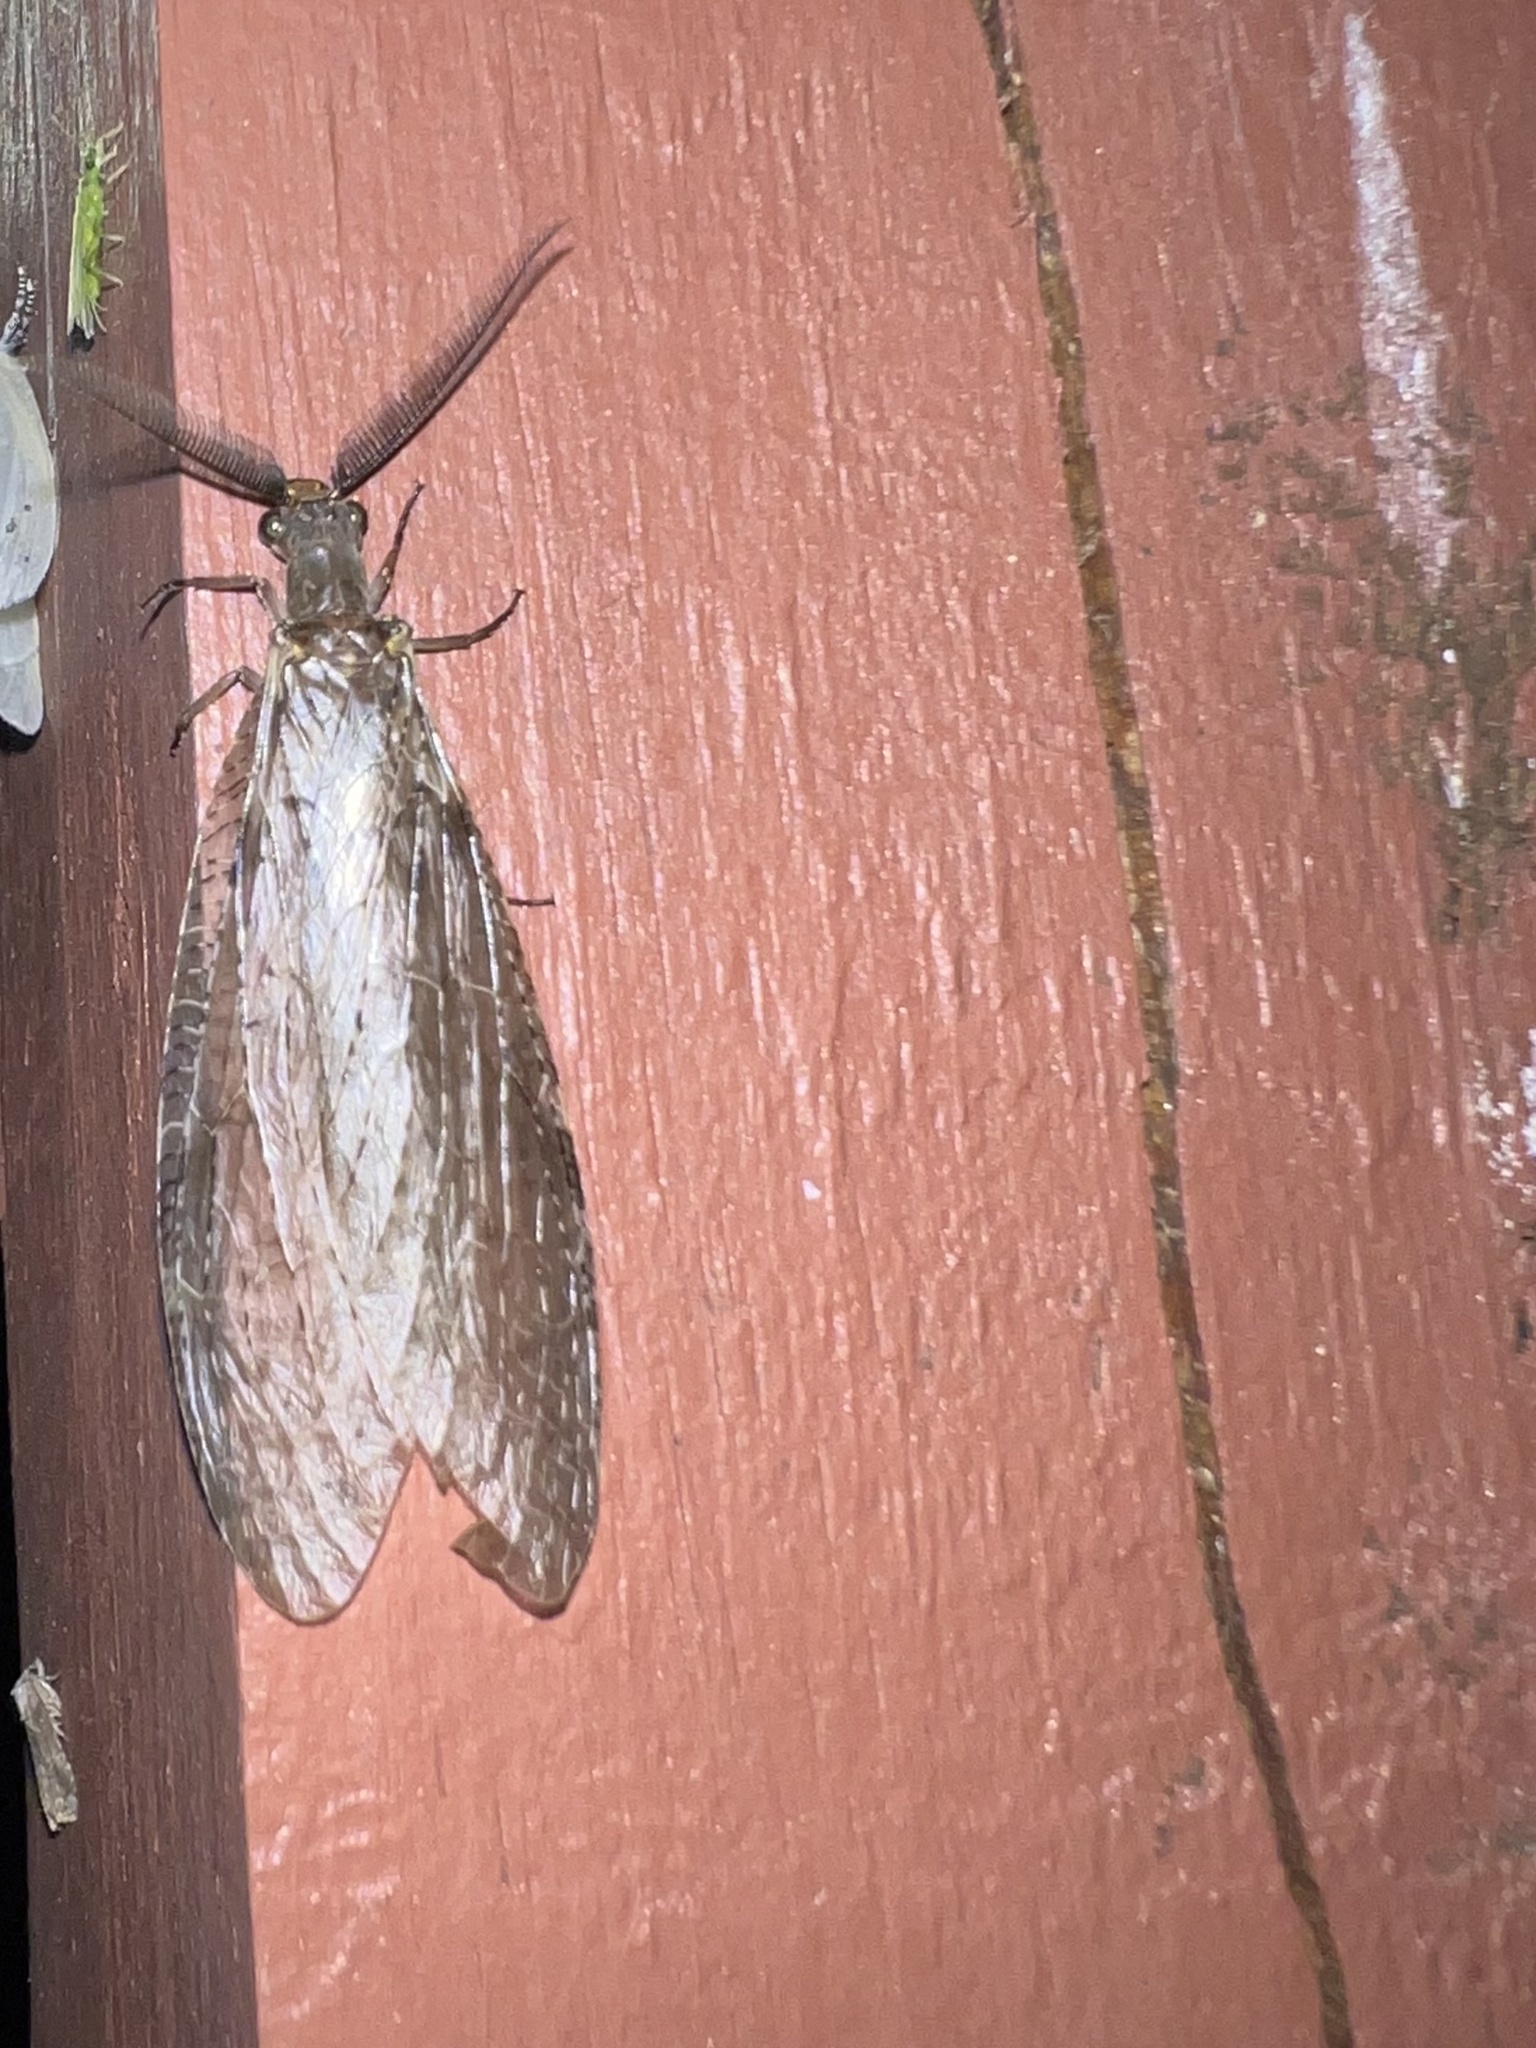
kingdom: Animalia
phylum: Arthropoda
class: Insecta
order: Megaloptera
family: Corydalidae
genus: Chauliodes
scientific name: Chauliodes pectinicornis
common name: Summer fishfly
